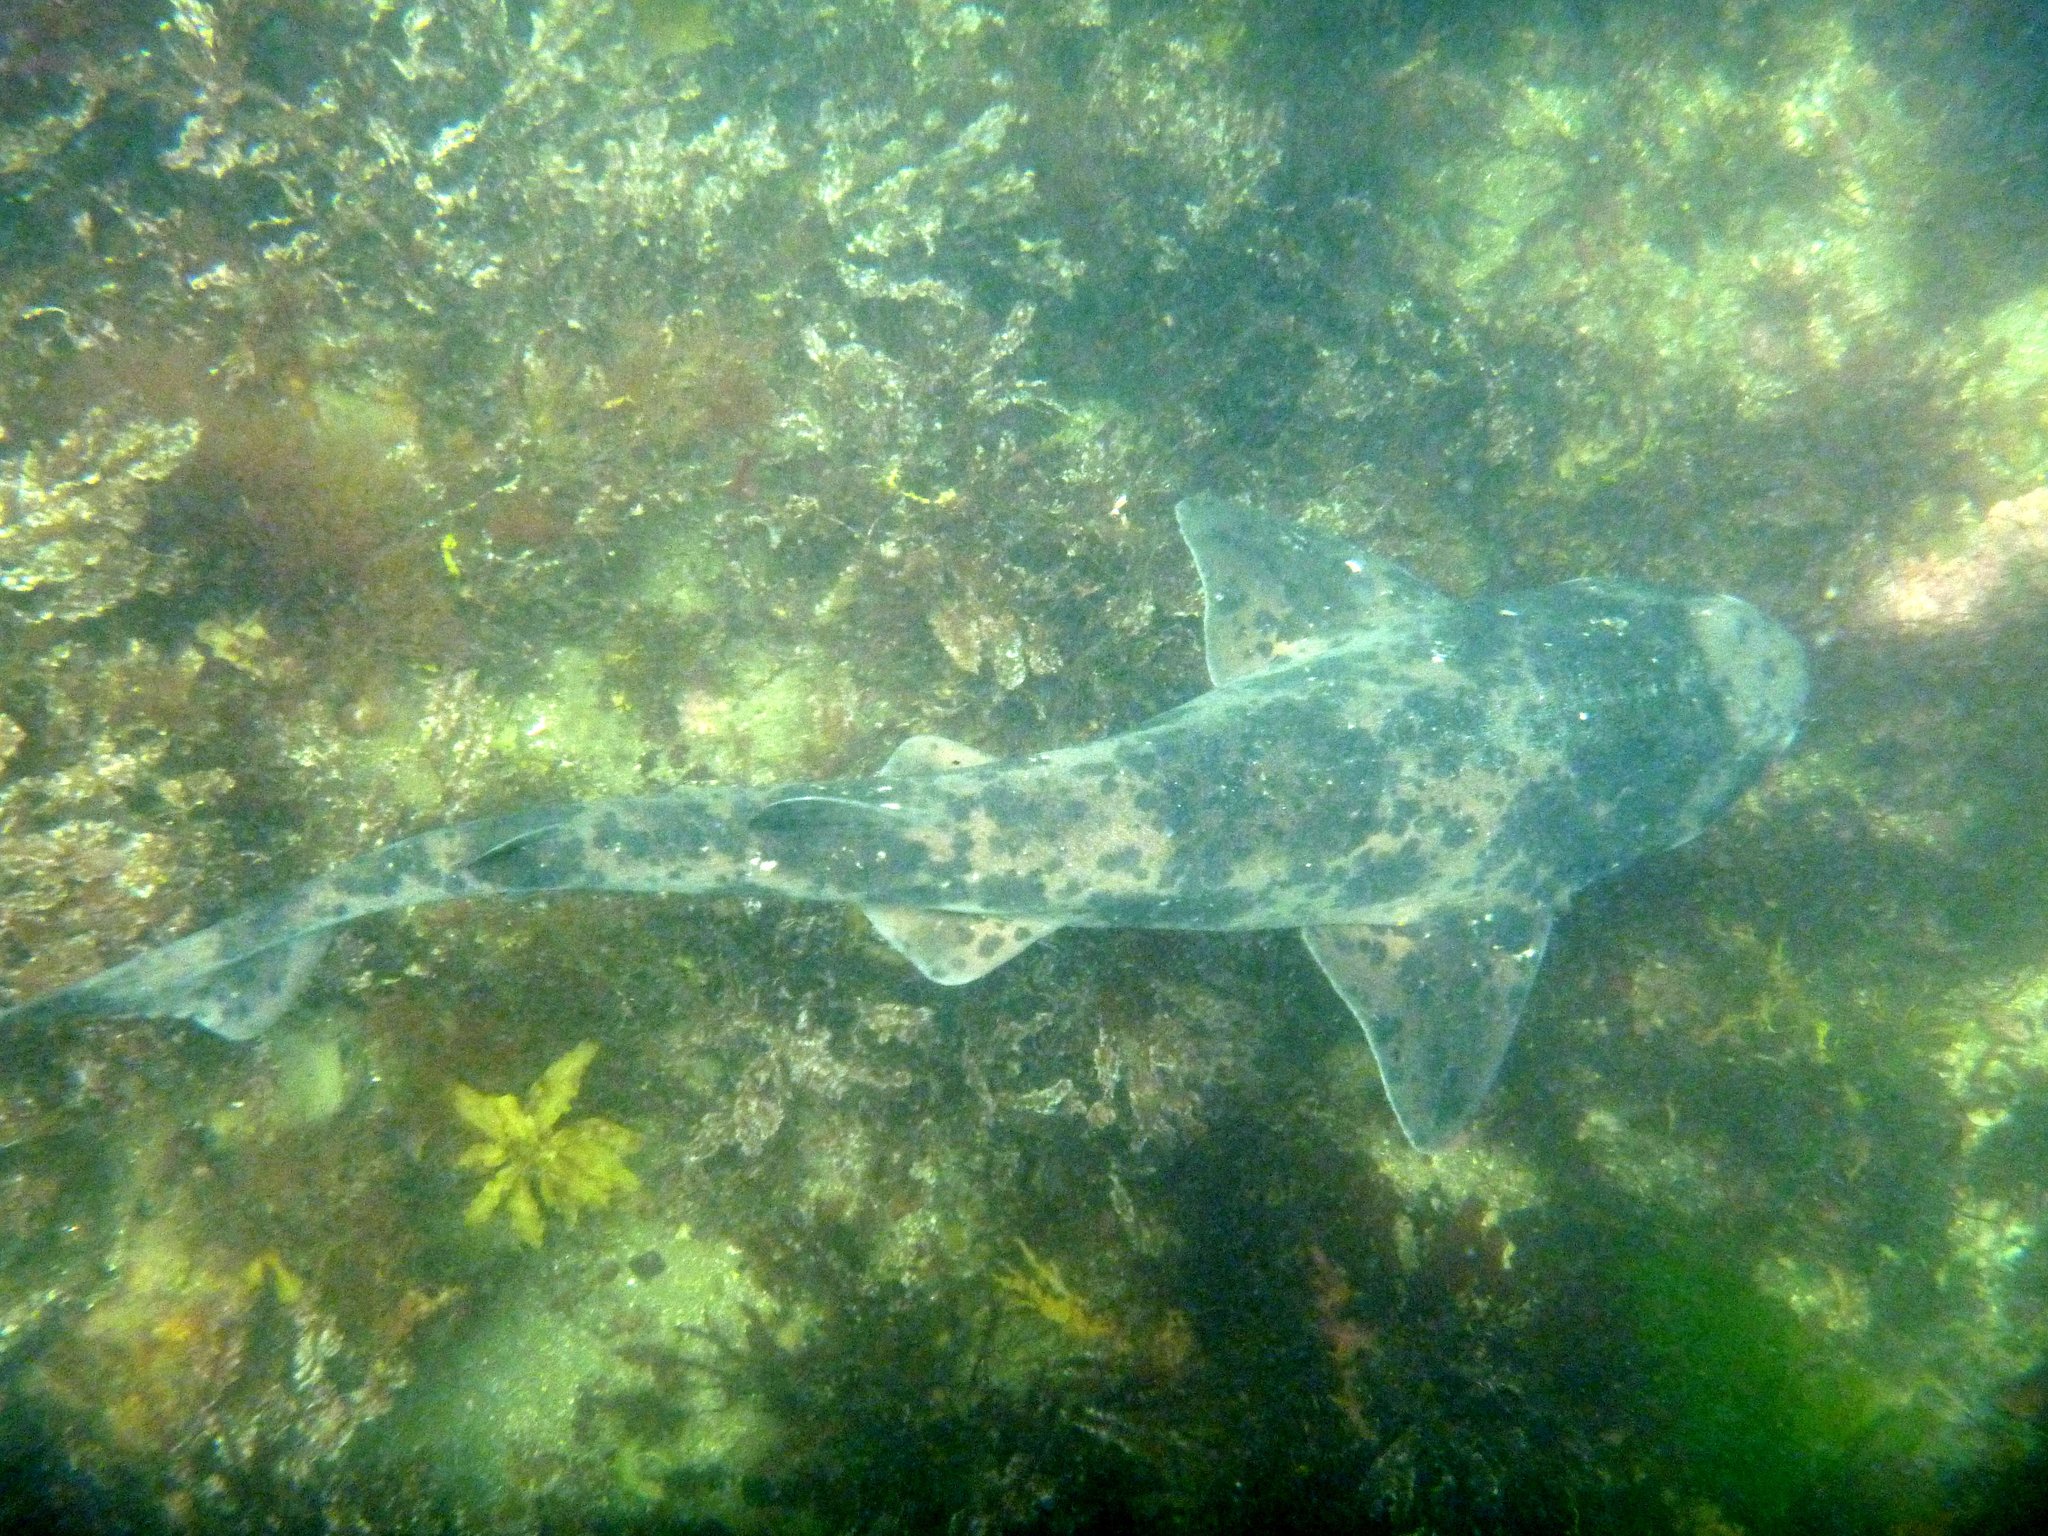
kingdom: Animalia
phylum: Chordata
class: Elasmobranchii
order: Carcharhiniformes
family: Scyliorhinidae
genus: Cephaloscyllium
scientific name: Cephaloscyllium laticeps
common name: Australian swellshark
